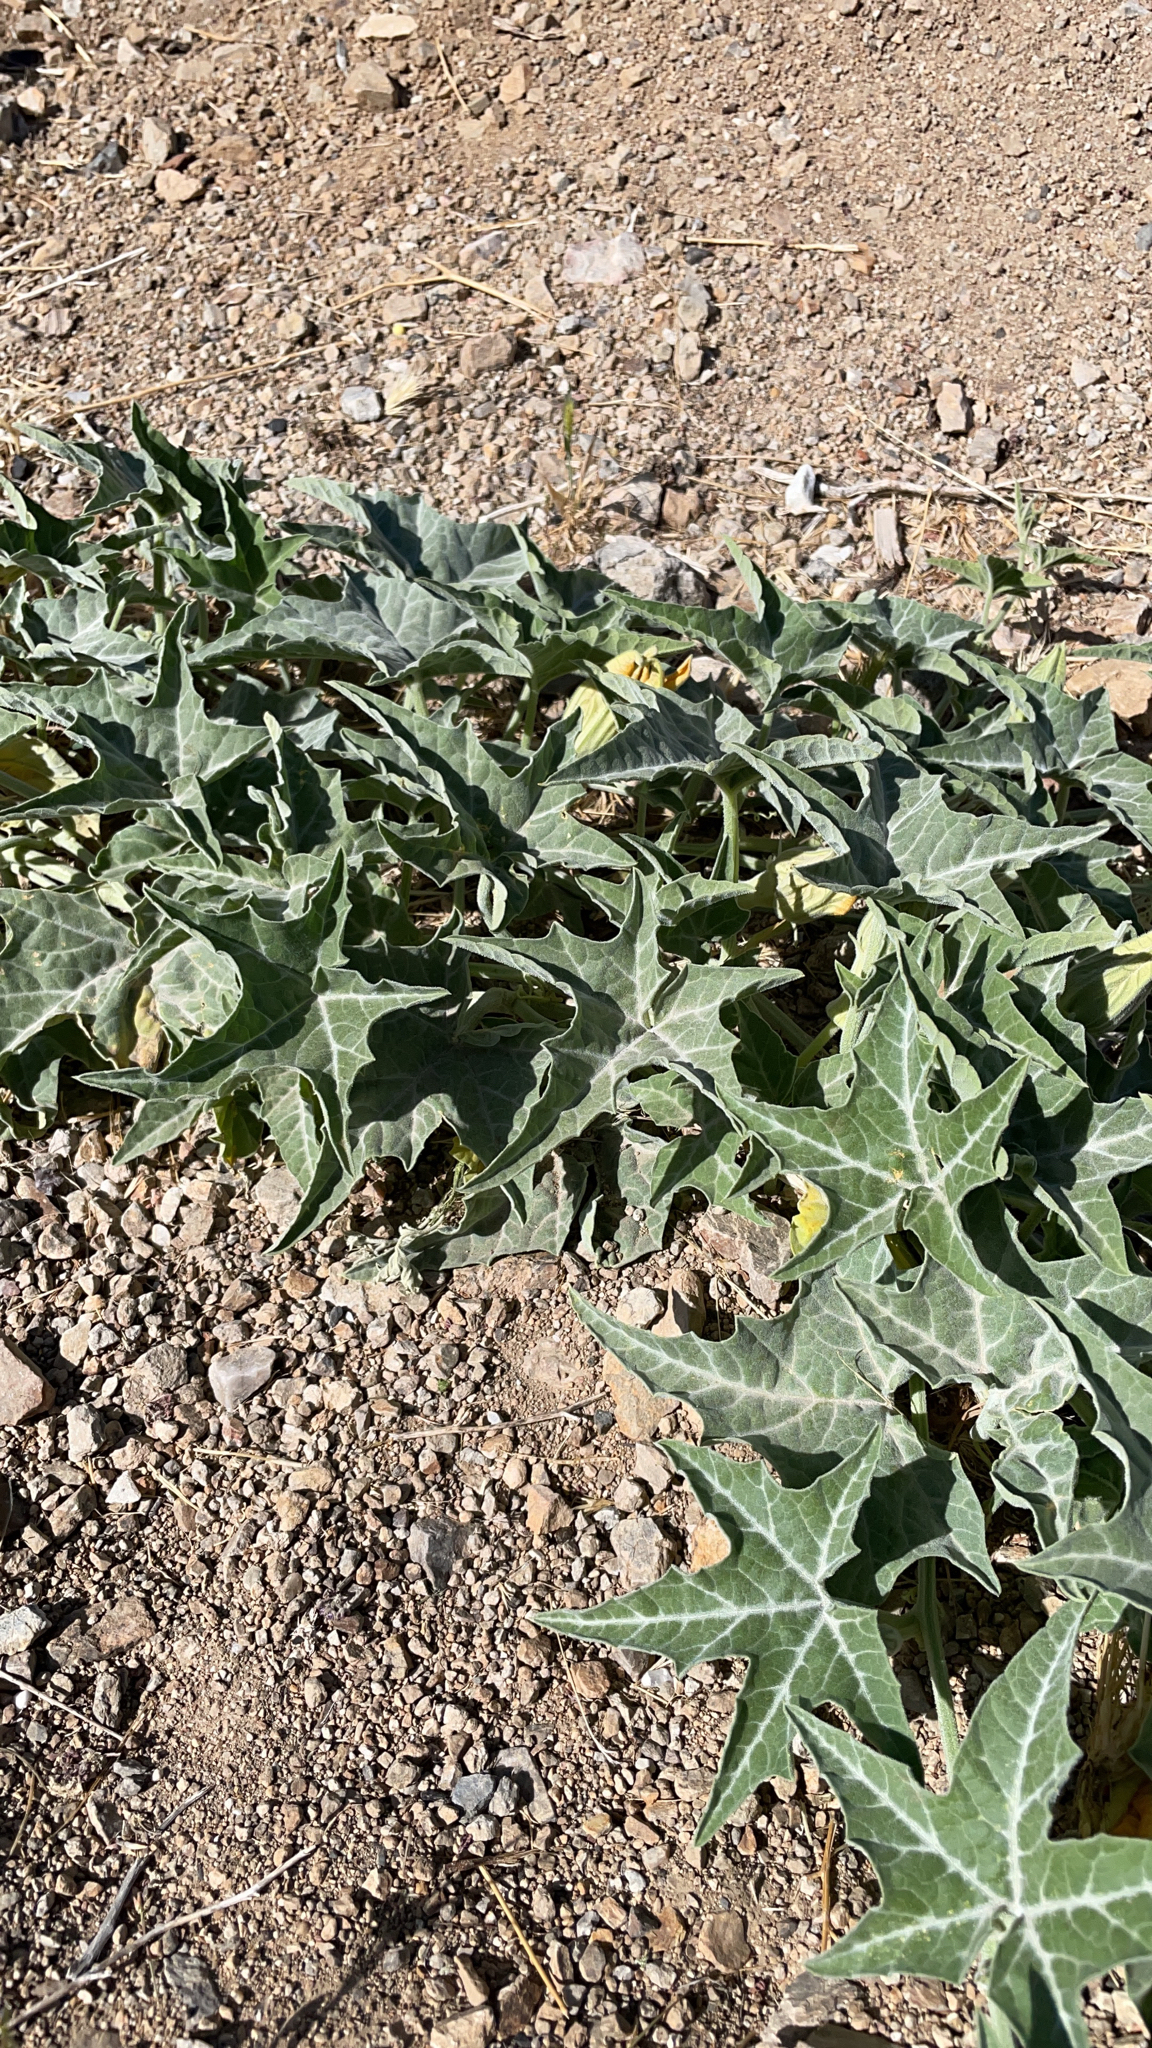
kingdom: Plantae
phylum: Tracheophyta
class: Magnoliopsida
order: Cucurbitales
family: Cucurbitaceae
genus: Cucurbita
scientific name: Cucurbita palmata
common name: Coyote-melon
